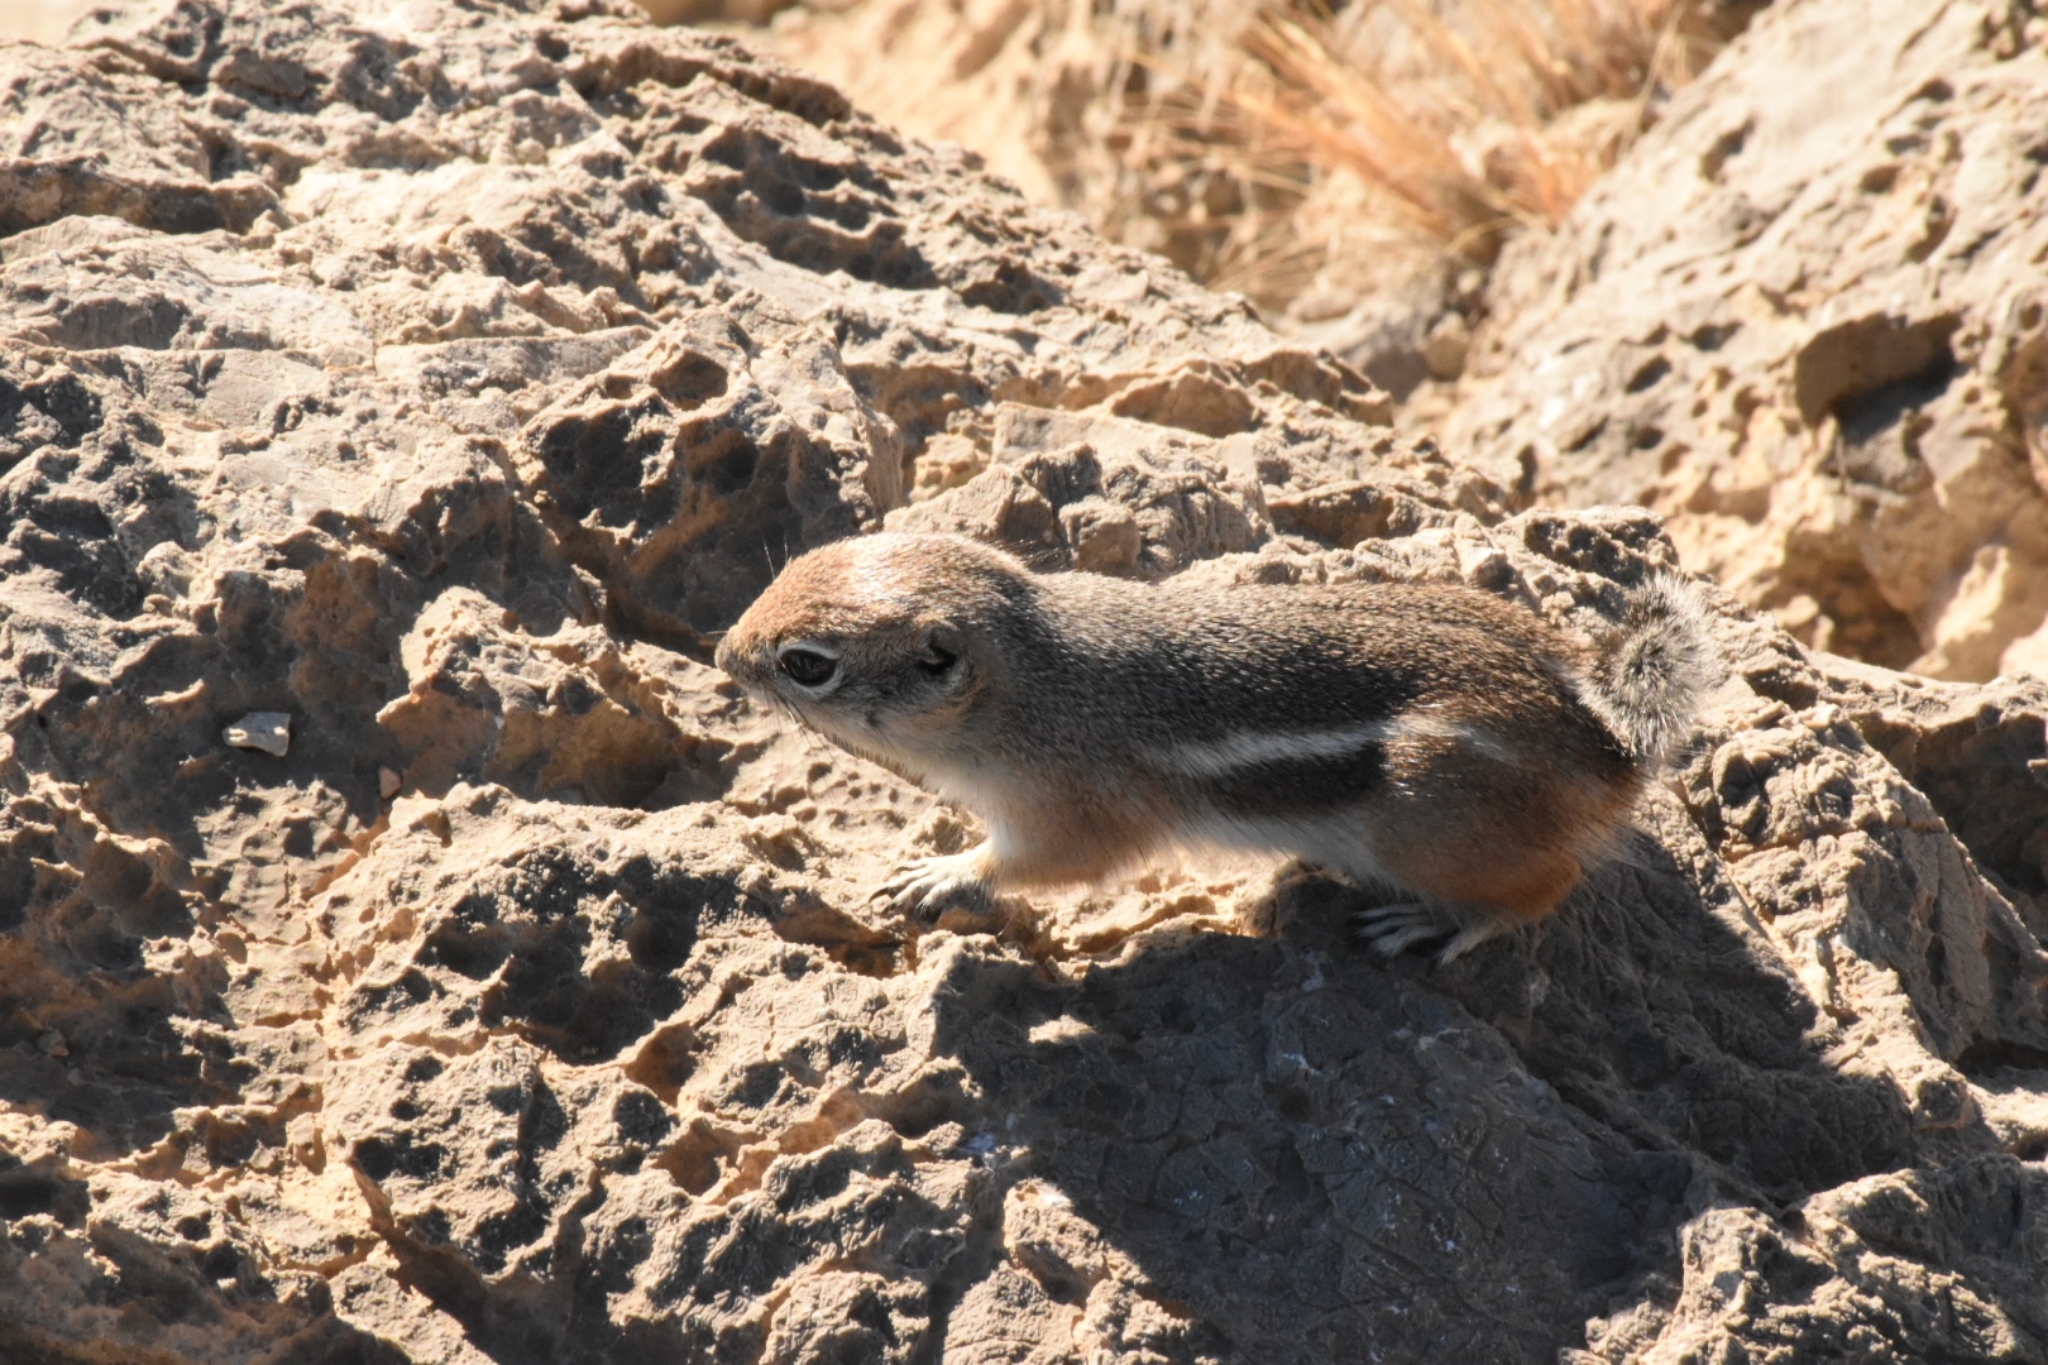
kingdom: Animalia
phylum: Chordata
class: Mammalia
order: Rodentia
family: Sciuridae
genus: Ammospermophilus
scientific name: Ammospermophilus leucurus
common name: White-tailed antelope squirrel
